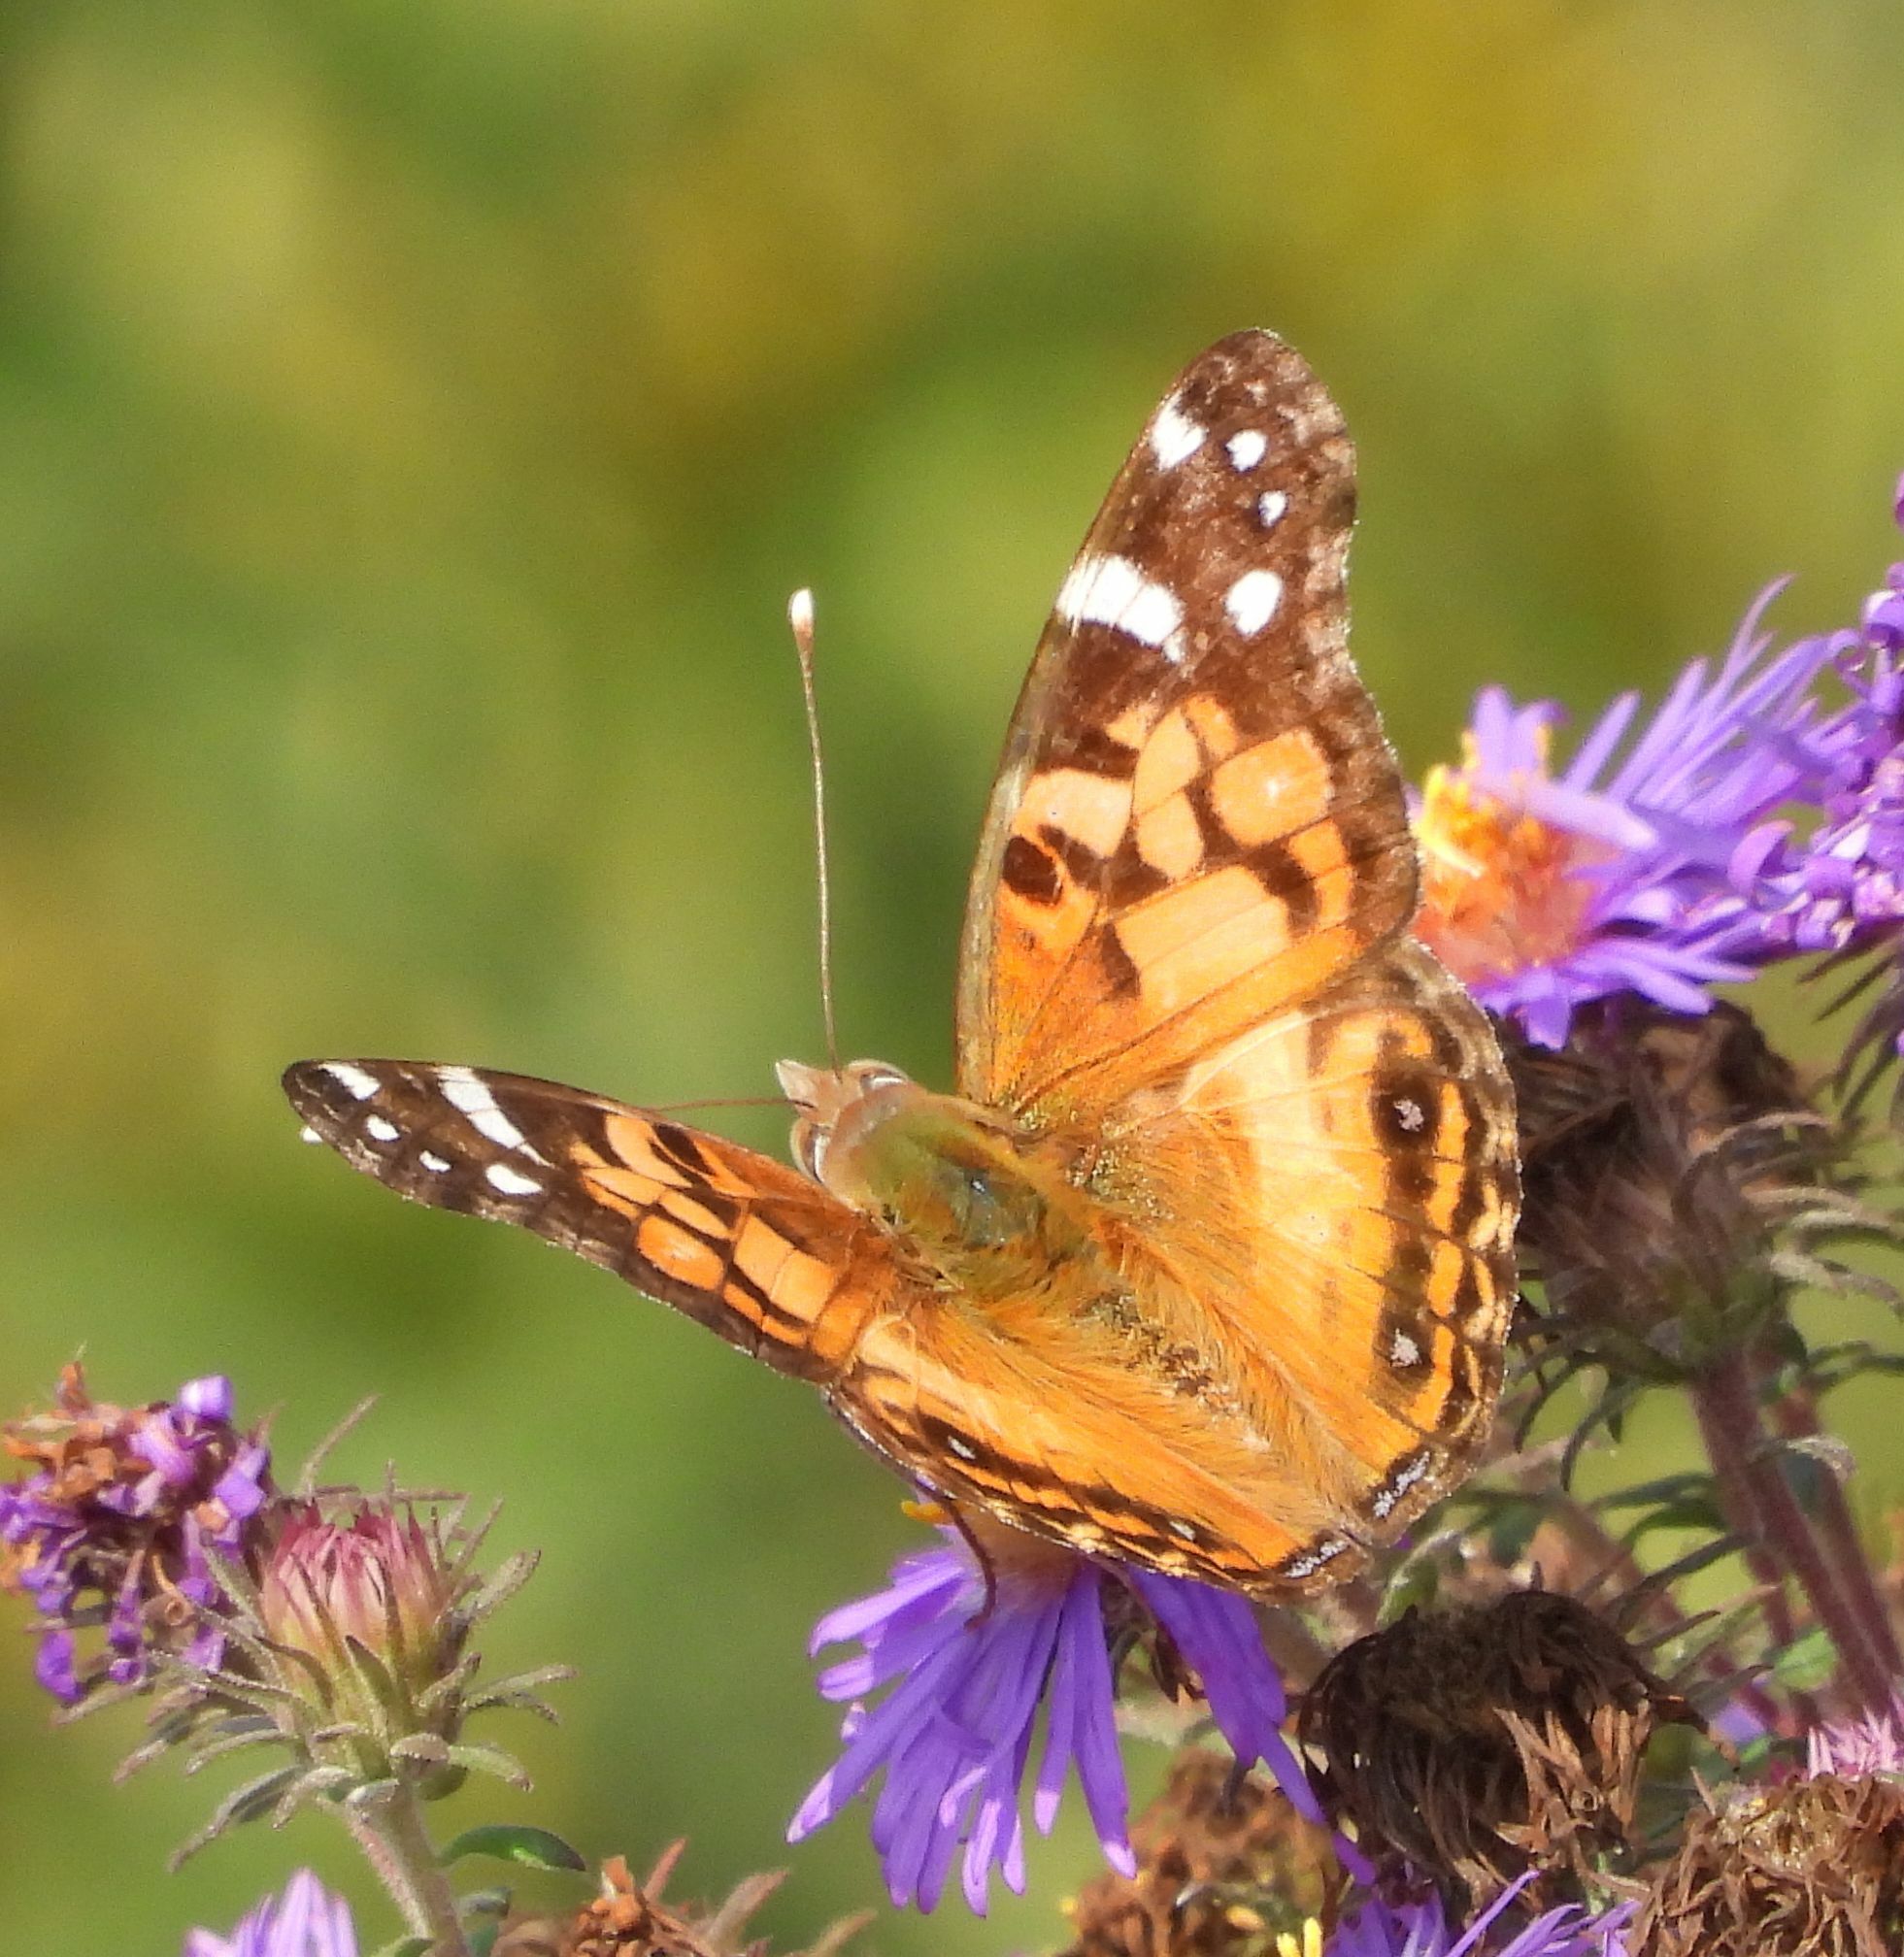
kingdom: Animalia
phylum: Arthropoda
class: Insecta
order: Lepidoptera
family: Nymphalidae
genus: Vanessa
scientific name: Vanessa virginiensis
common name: American lady
